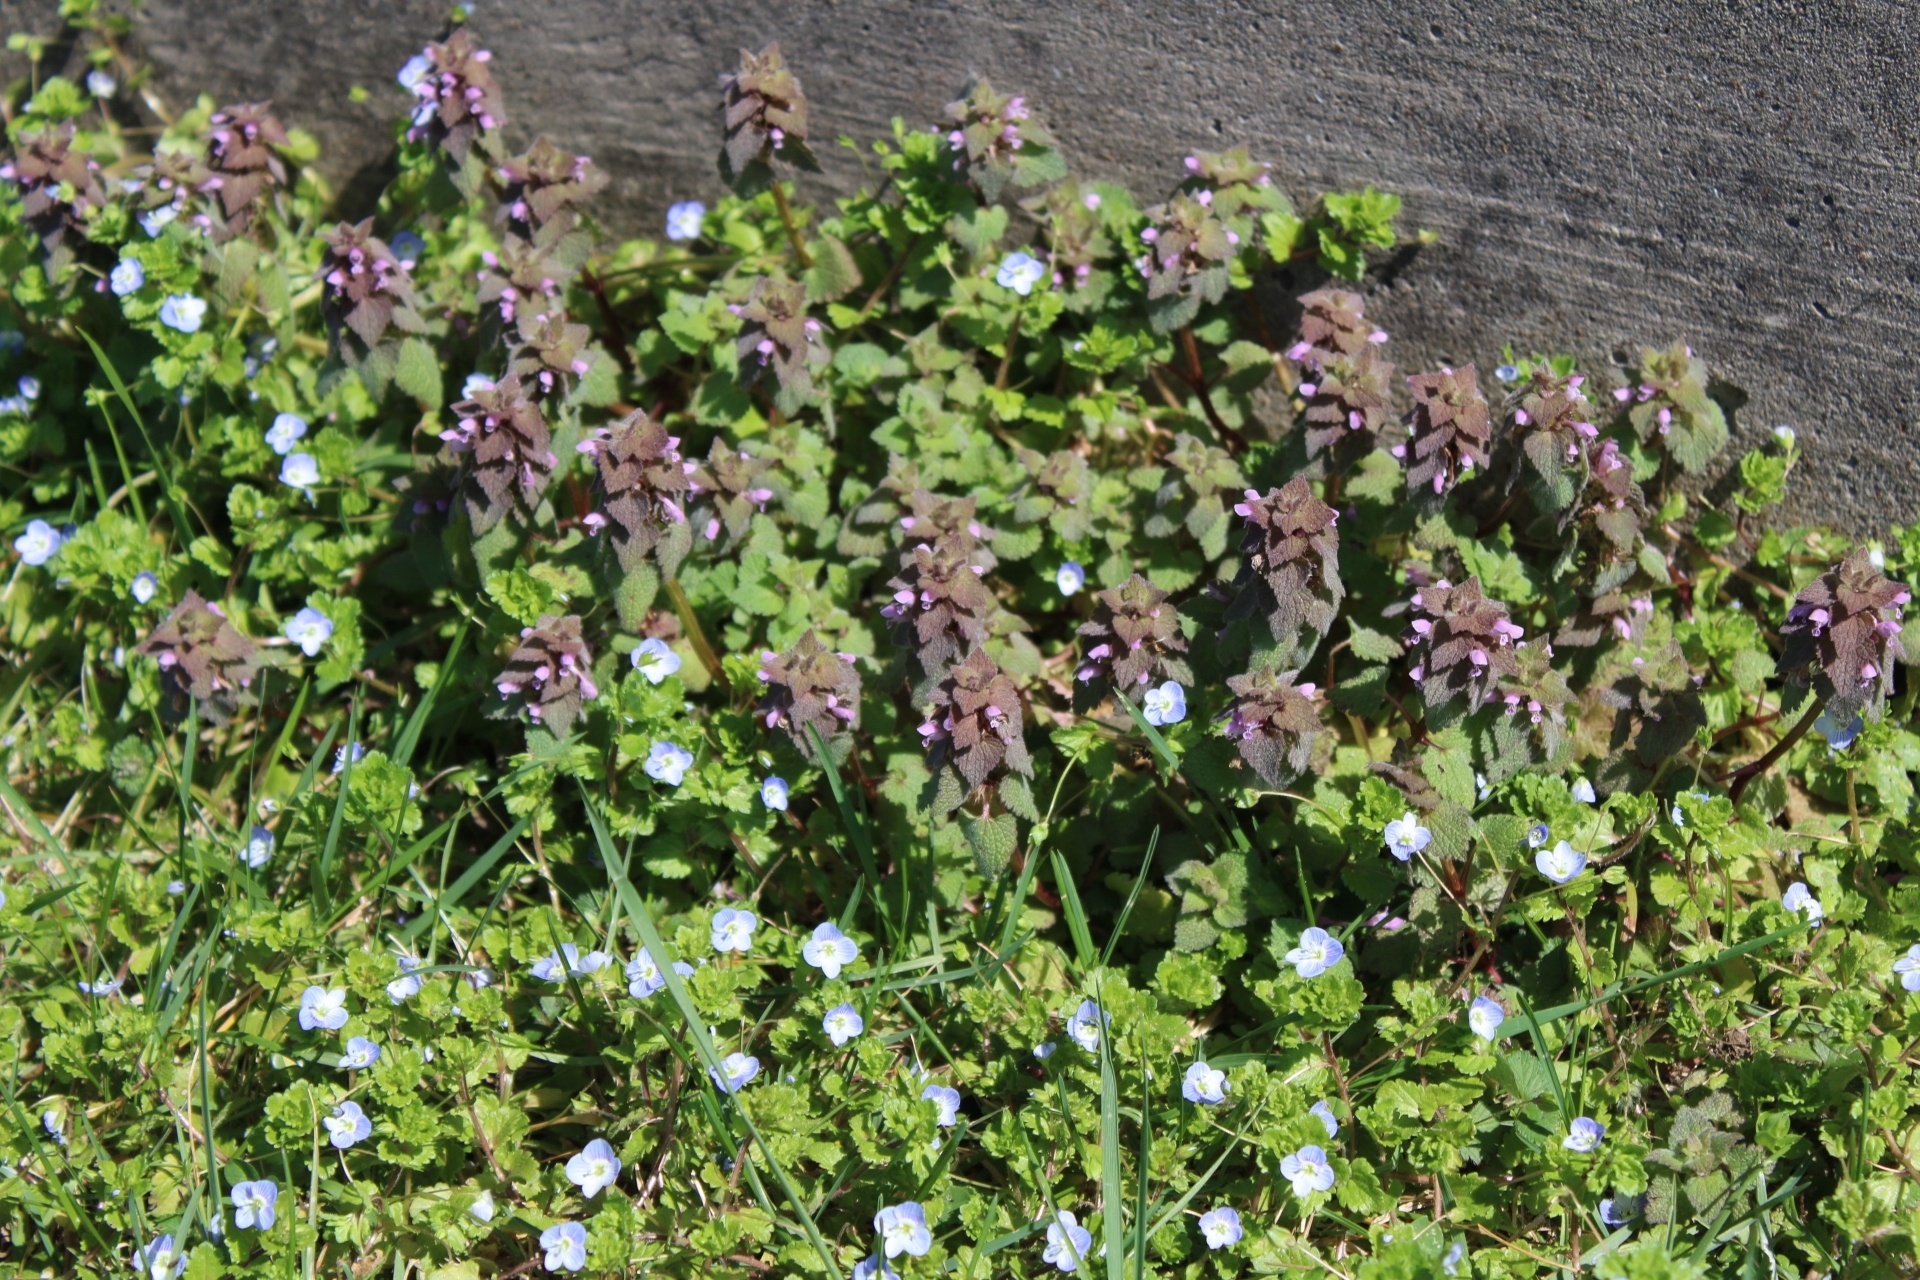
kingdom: Plantae
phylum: Tracheophyta
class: Magnoliopsida
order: Lamiales
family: Lamiaceae
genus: Lamium
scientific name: Lamium purpureum
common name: Red dead-nettle
